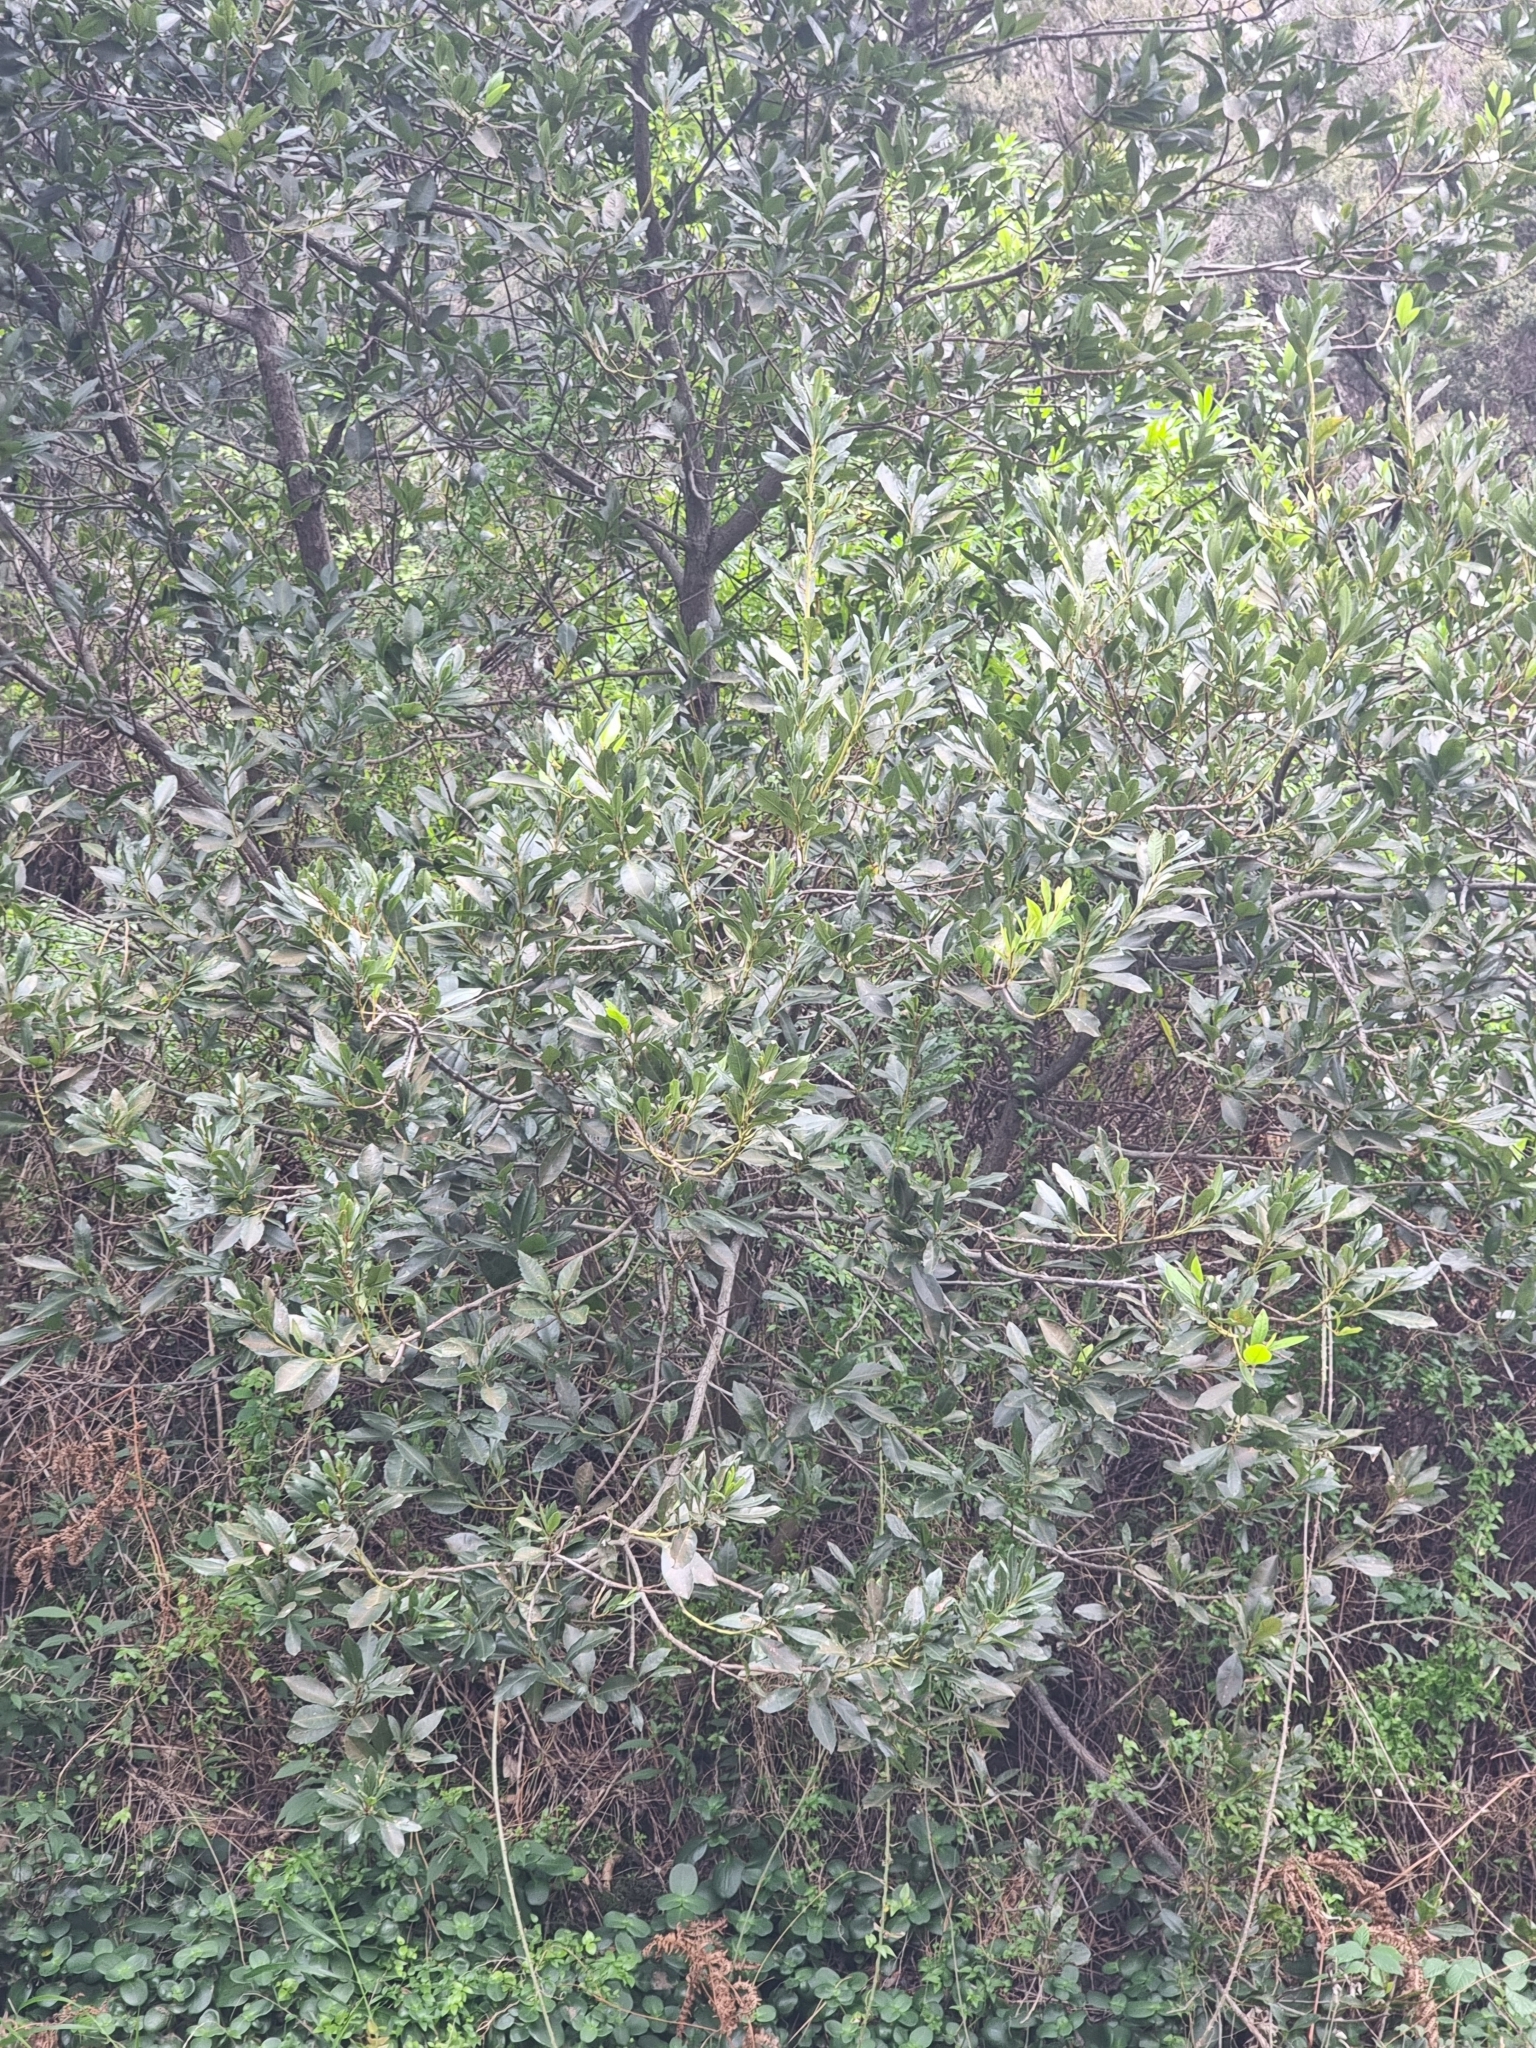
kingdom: Plantae
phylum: Tracheophyta
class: Magnoliopsida
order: Fagales
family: Myricaceae
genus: Morella
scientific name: Morella faya
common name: Firetree
